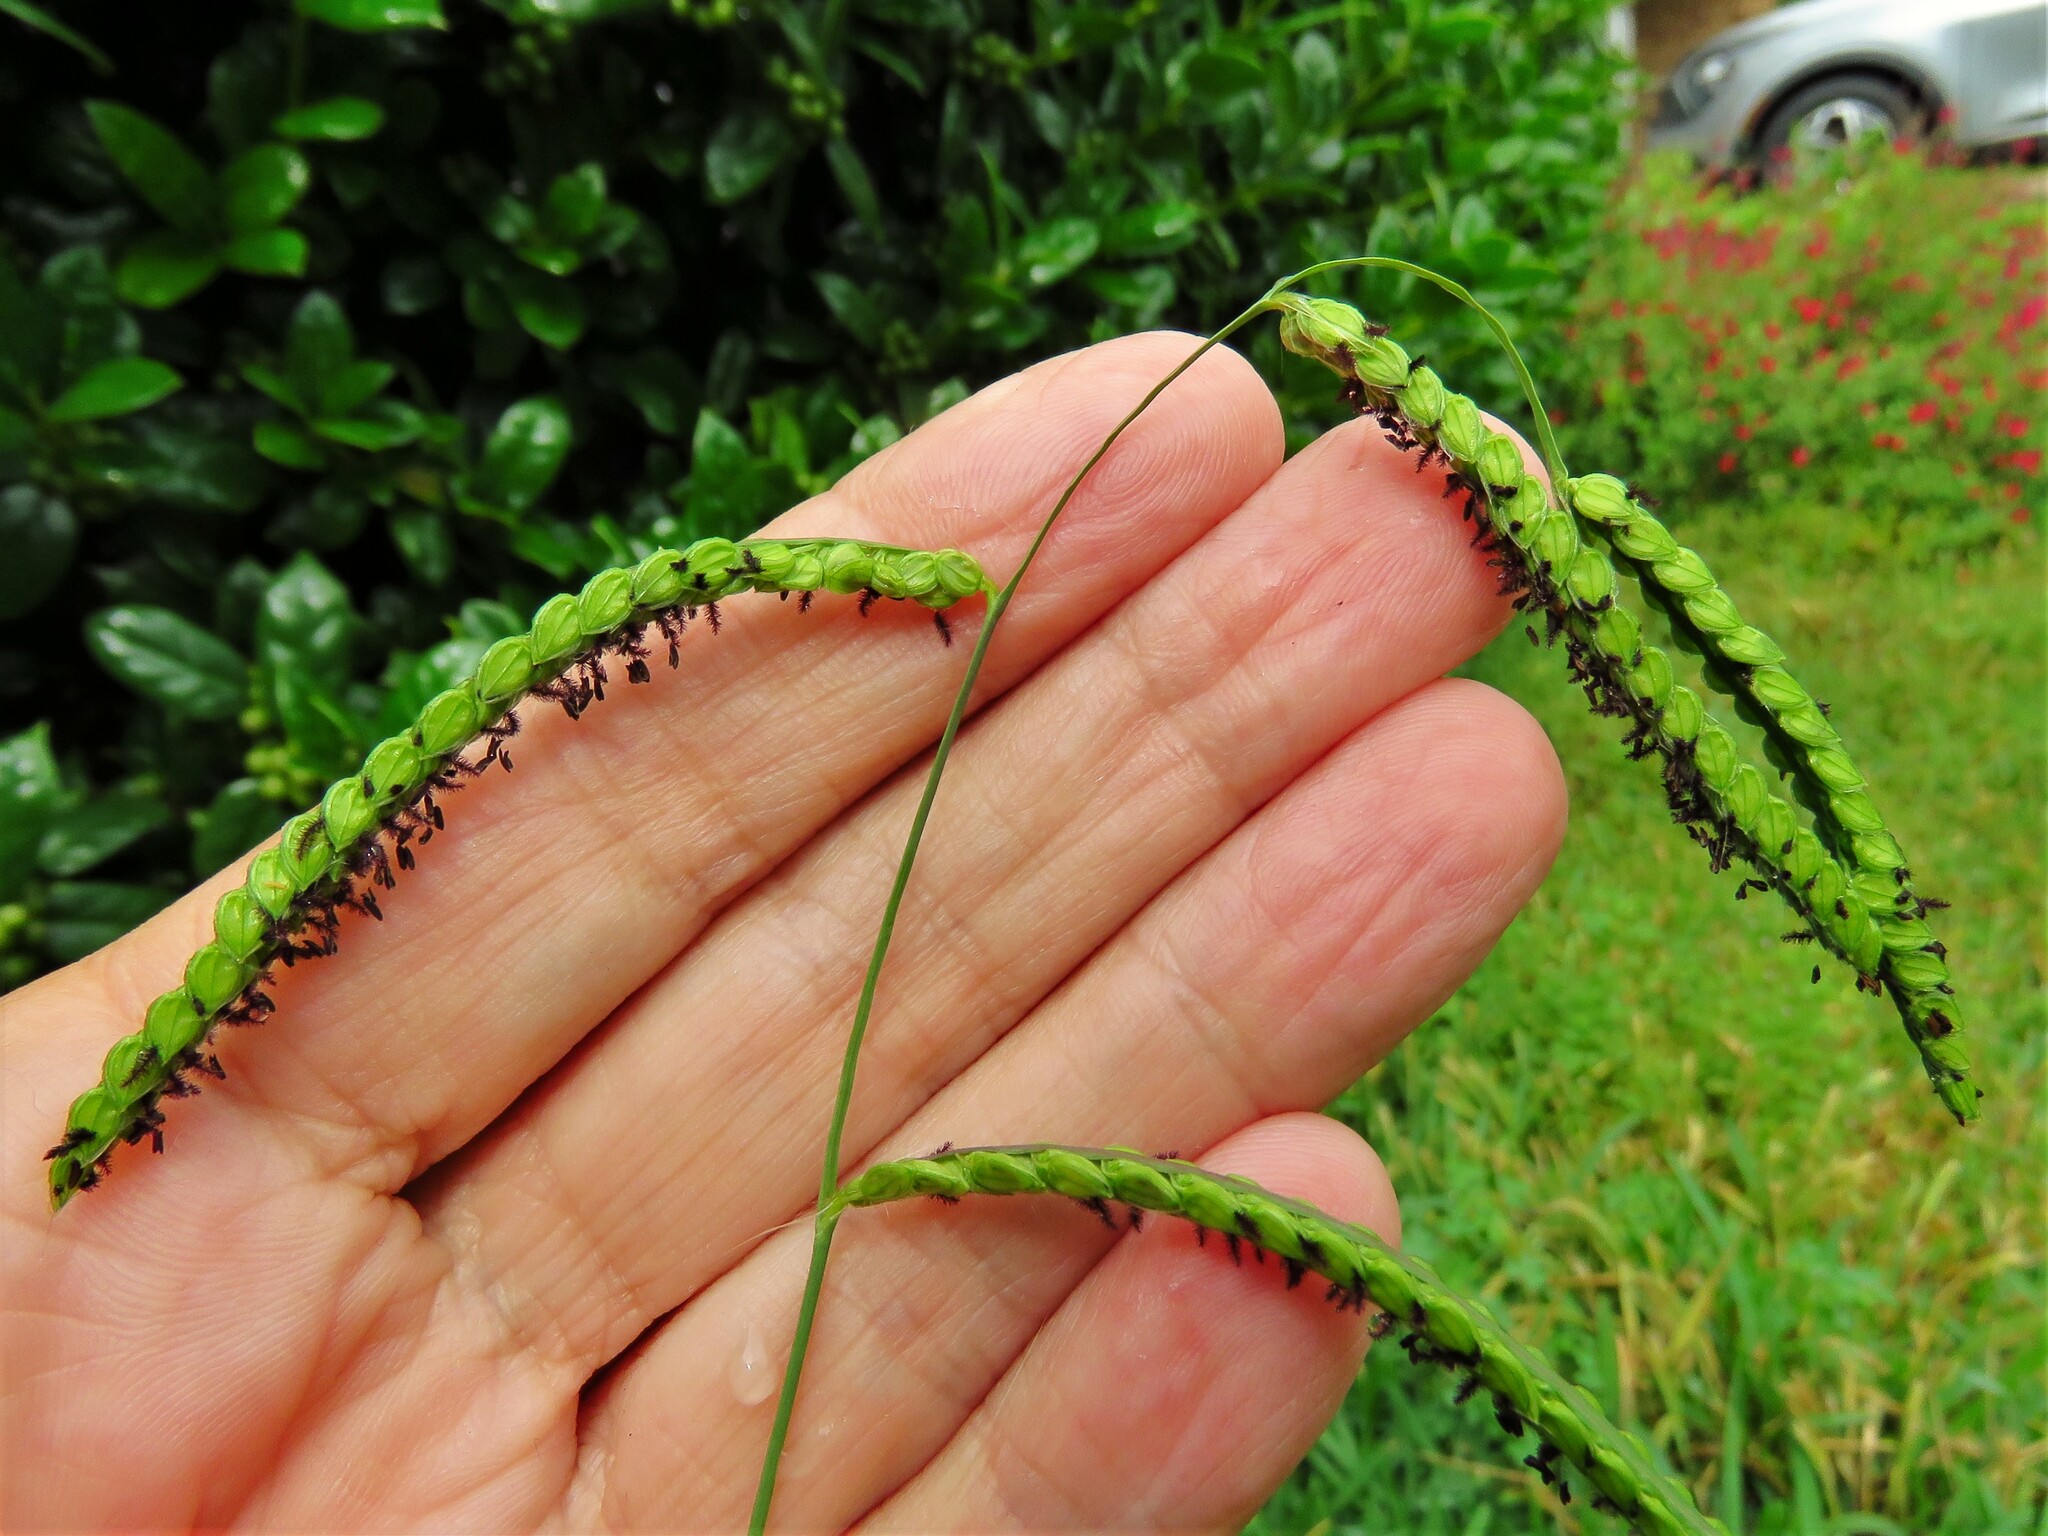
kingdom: Plantae
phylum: Tracheophyta
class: Liliopsida
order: Poales
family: Poaceae
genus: Paspalum
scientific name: Paspalum dilatatum
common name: Dallisgrass
